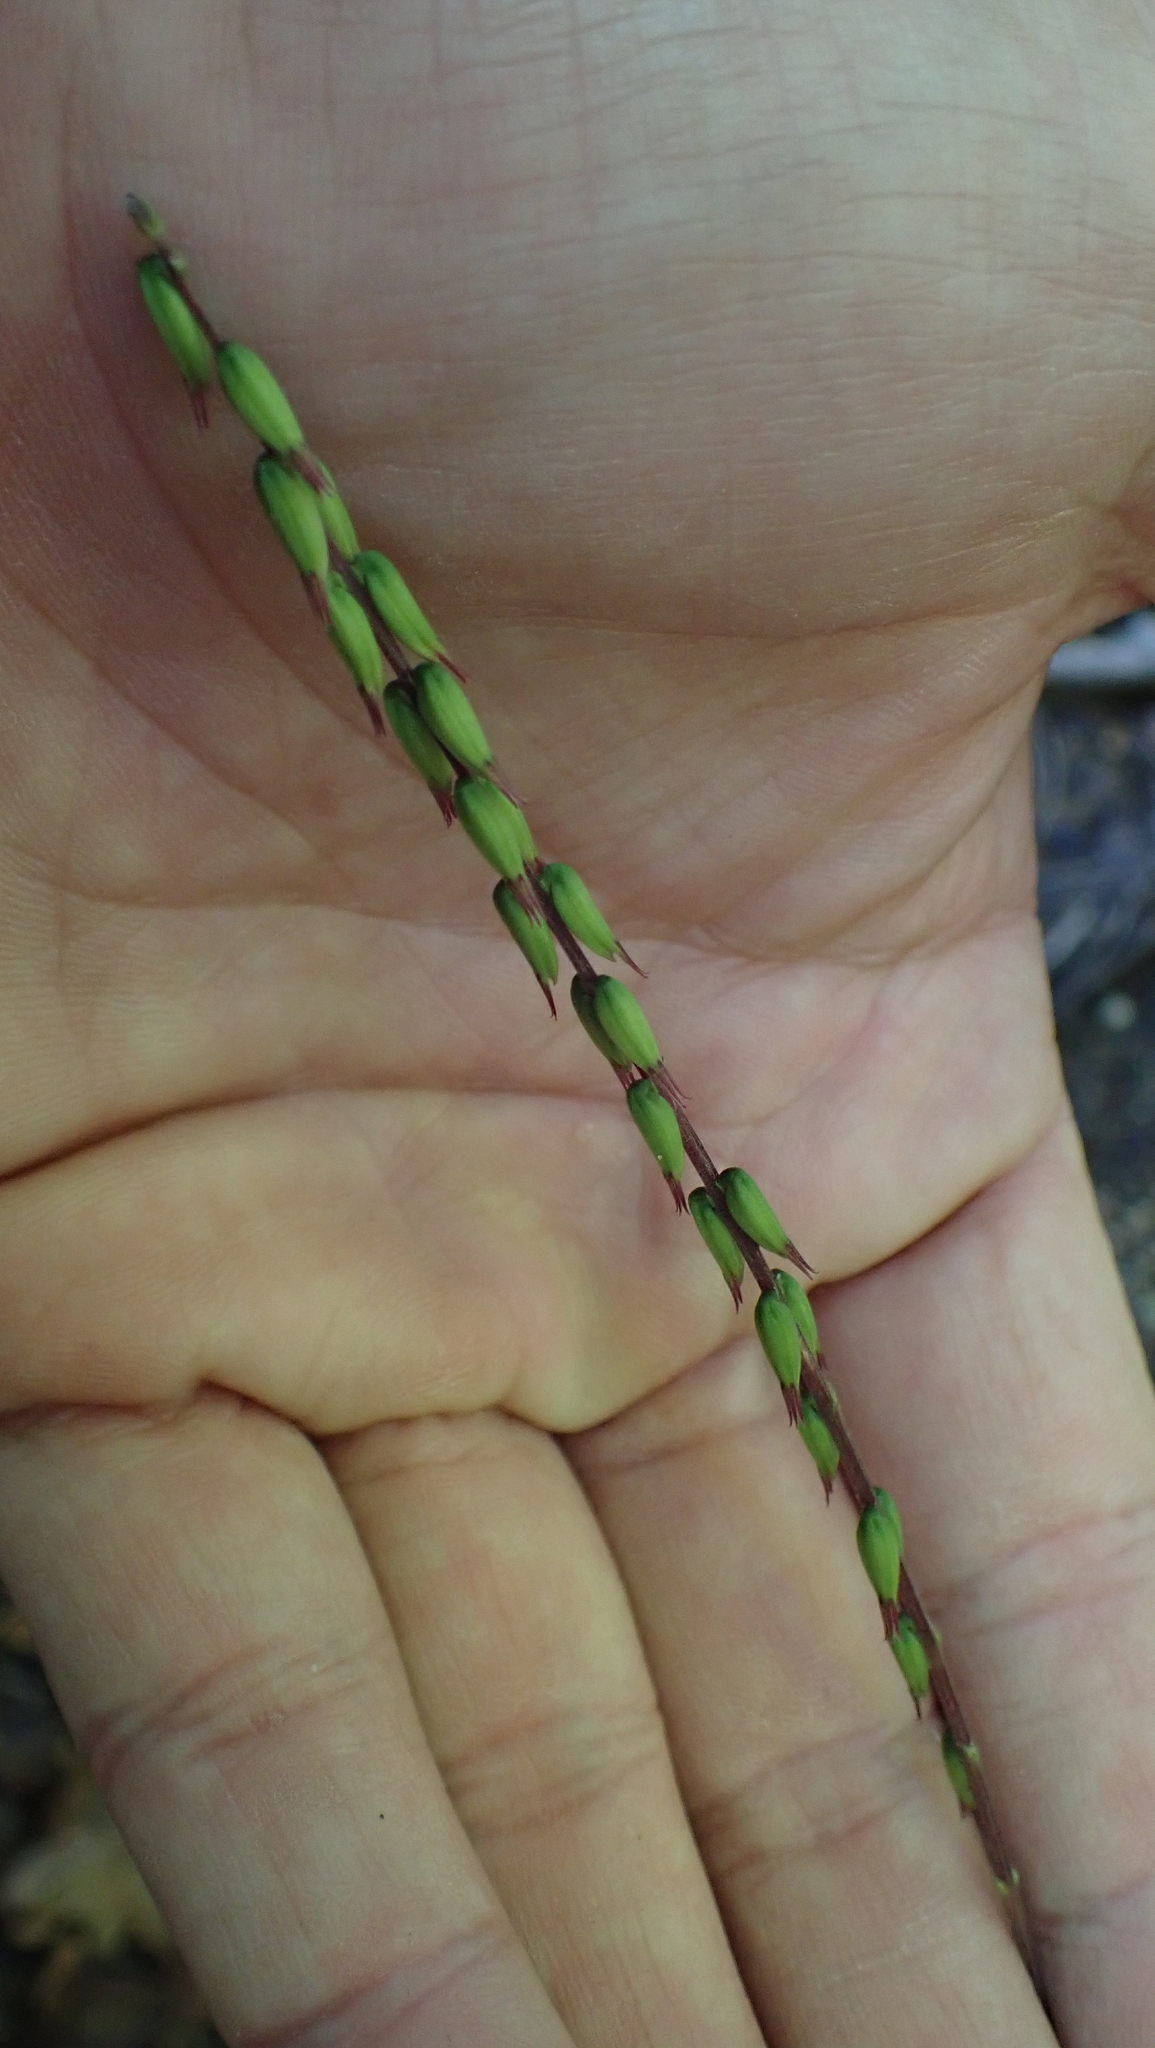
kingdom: Plantae
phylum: Tracheophyta
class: Magnoliopsida
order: Lamiales
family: Phrymaceae
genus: Phryma
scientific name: Phryma leptostachya
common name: American lopseed
